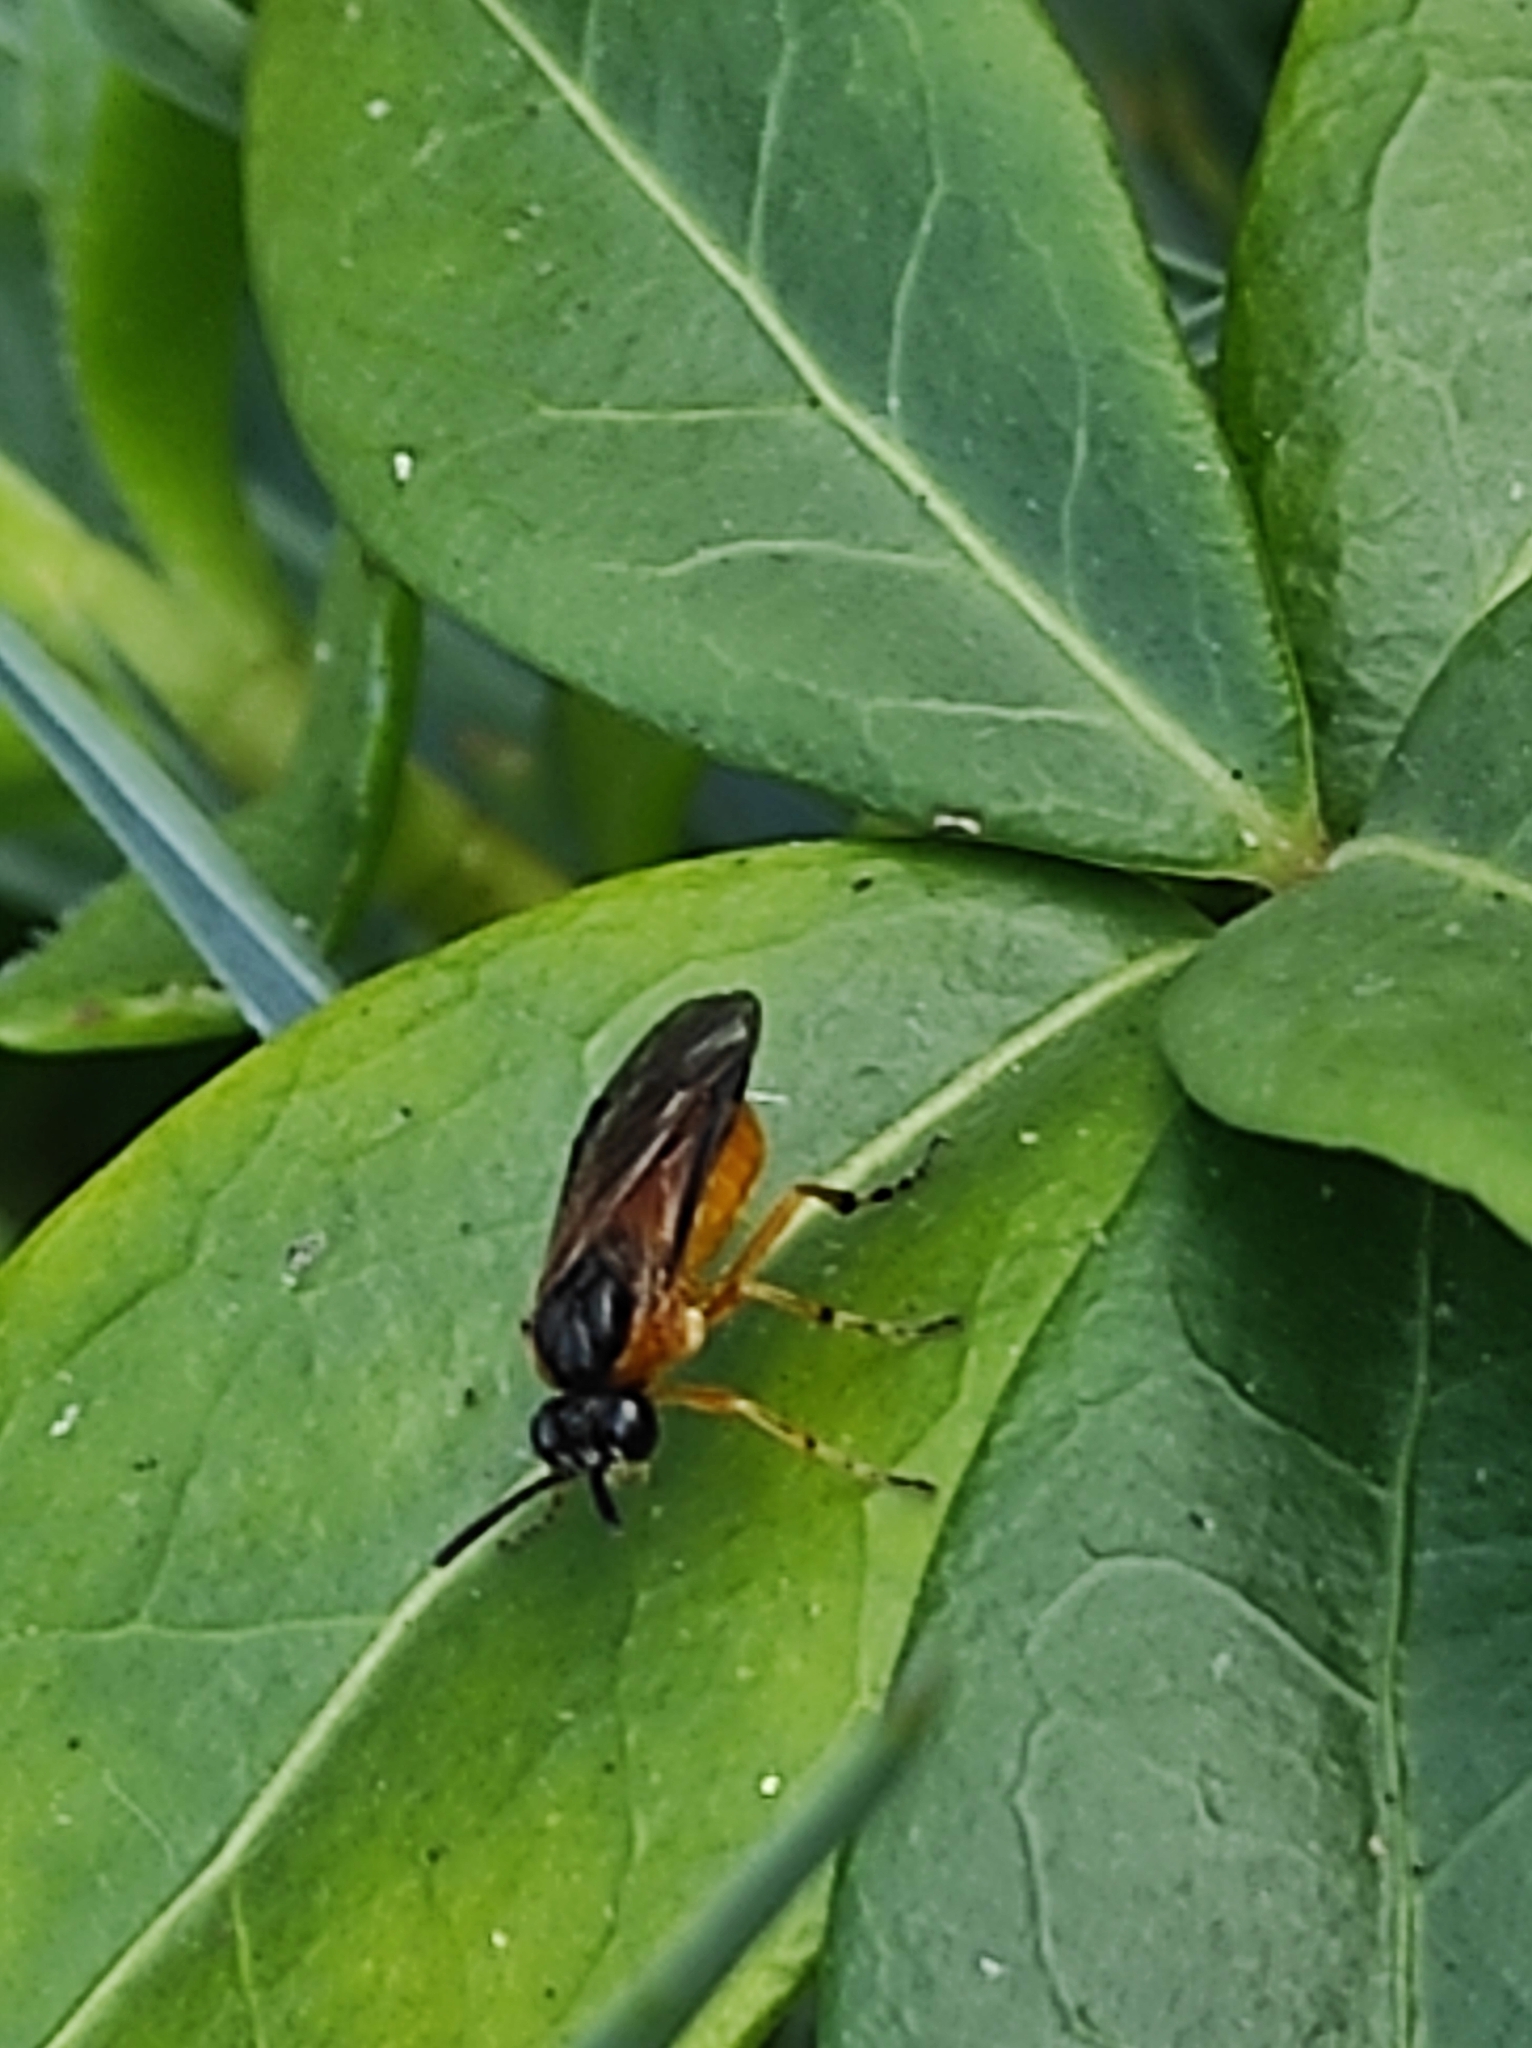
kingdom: Animalia
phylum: Arthropoda
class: Insecta
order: Hymenoptera
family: Tenthredinidae
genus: Athalia
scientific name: Athalia lugens
